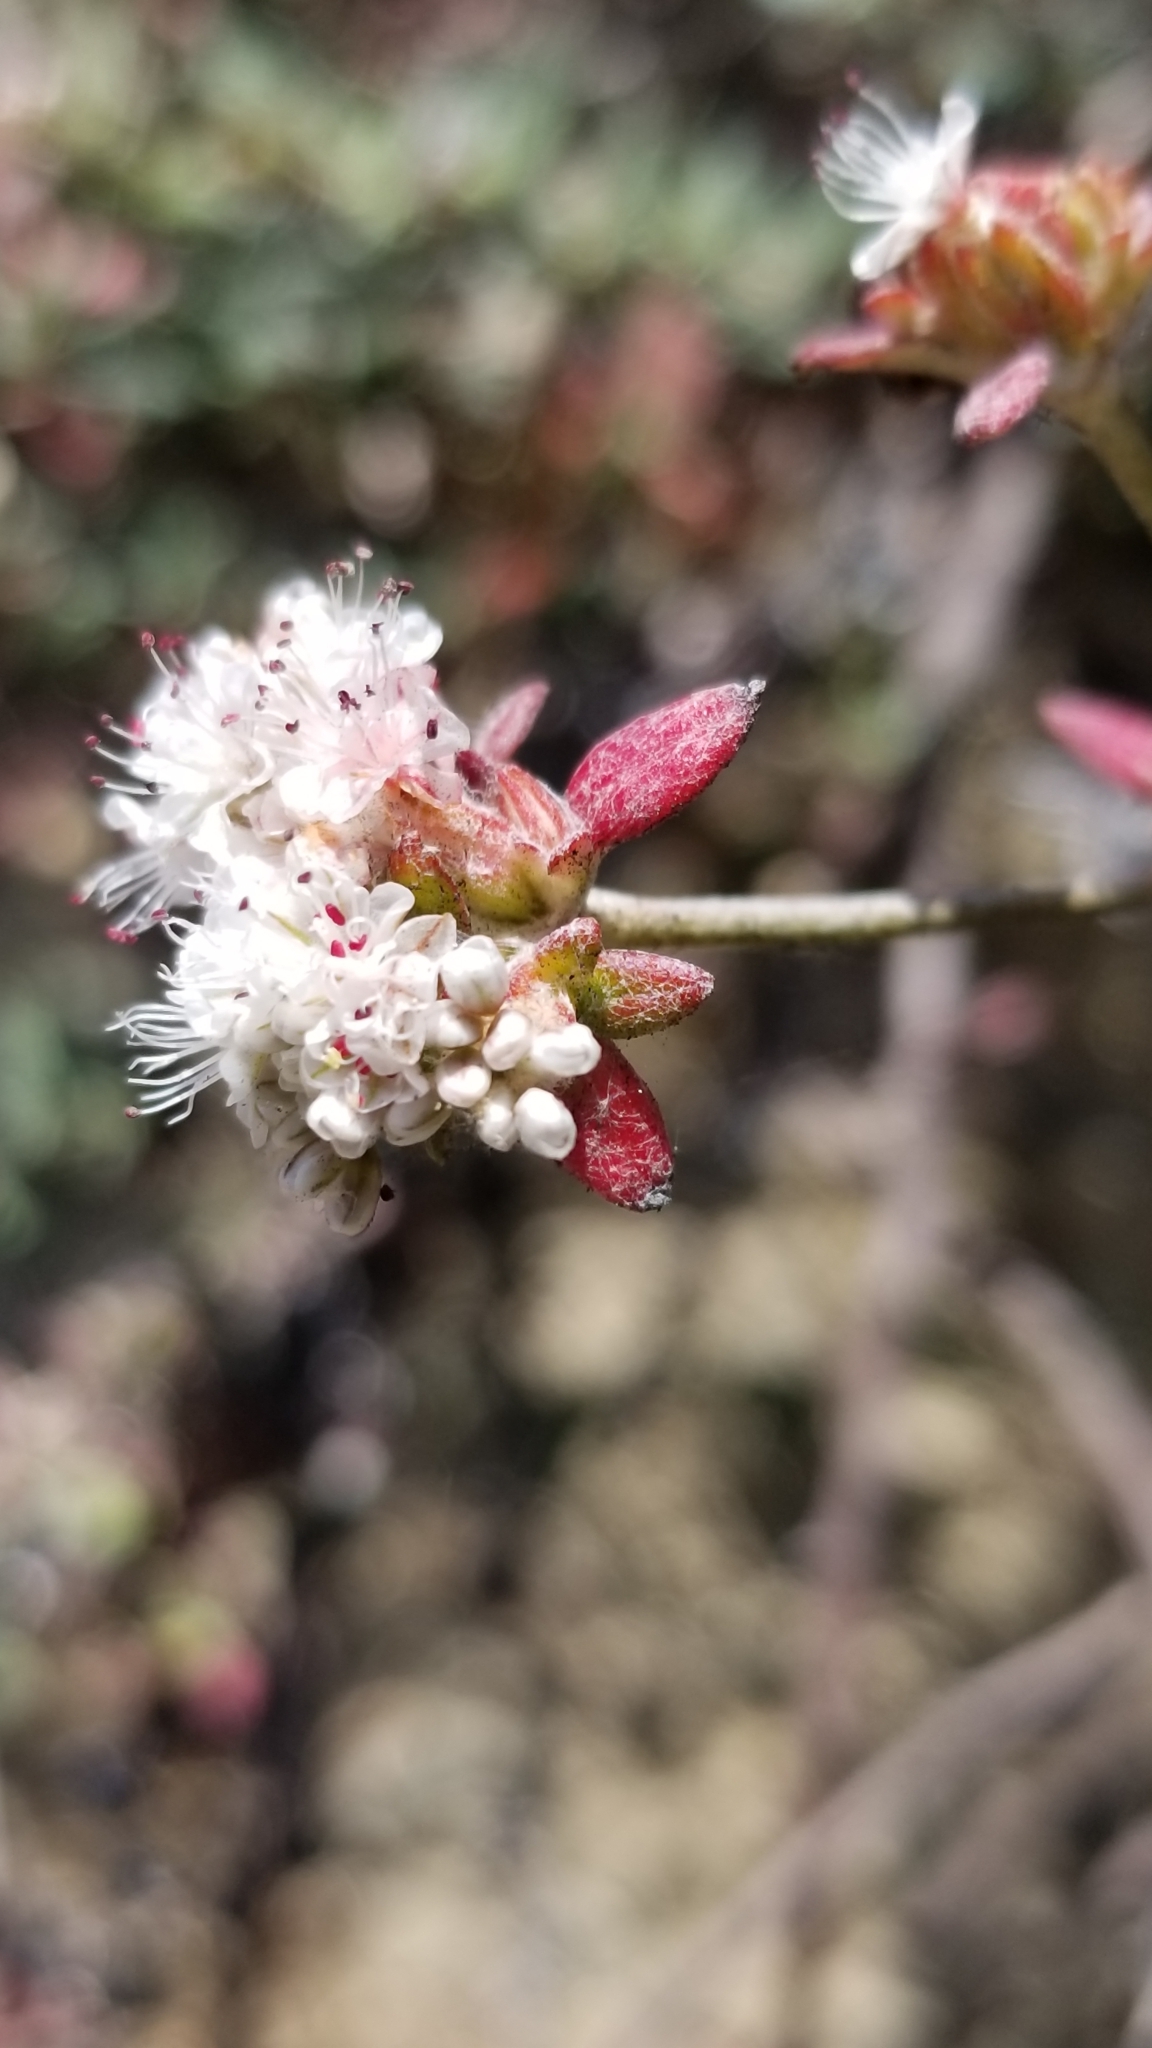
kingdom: Plantae
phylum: Tracheophyta
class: Magnoliopsida
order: Caryophyllales
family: Polygonaceae
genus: Eriogonum
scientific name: Eriogonum parvifolium
